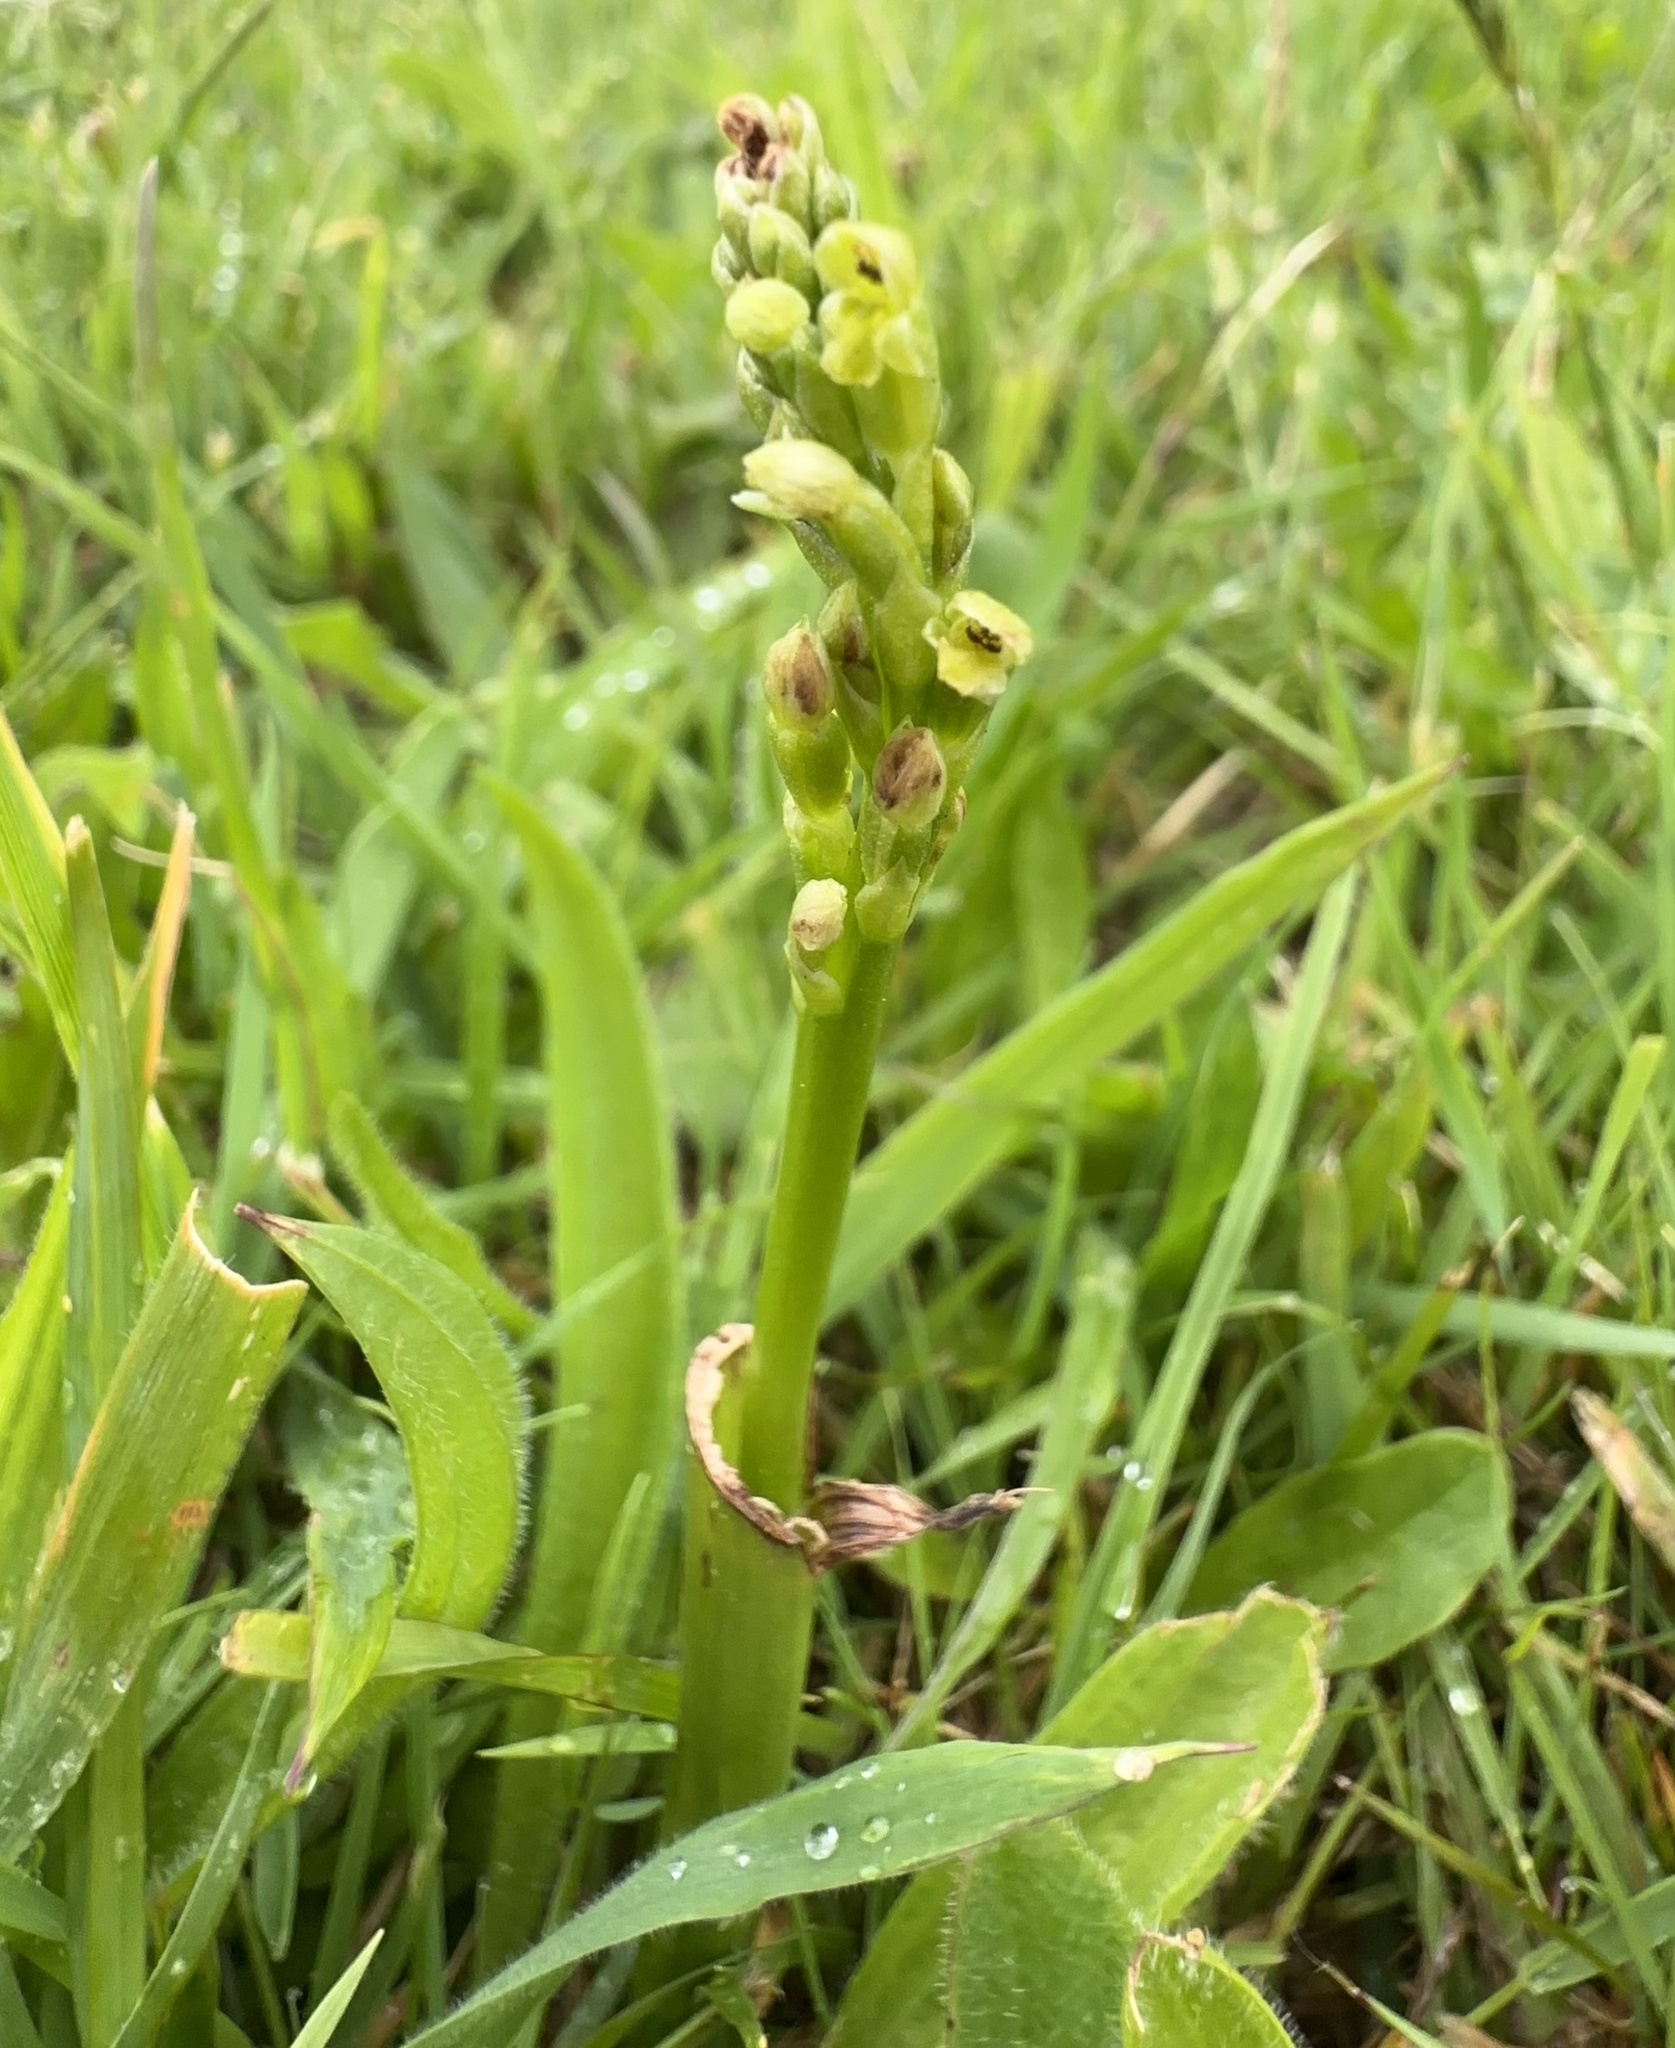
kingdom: Plantae
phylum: Tracheophyta
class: Liliopsida
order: Asparagales
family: Orchidaceae
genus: Microtis
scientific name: Microtis unifolia
